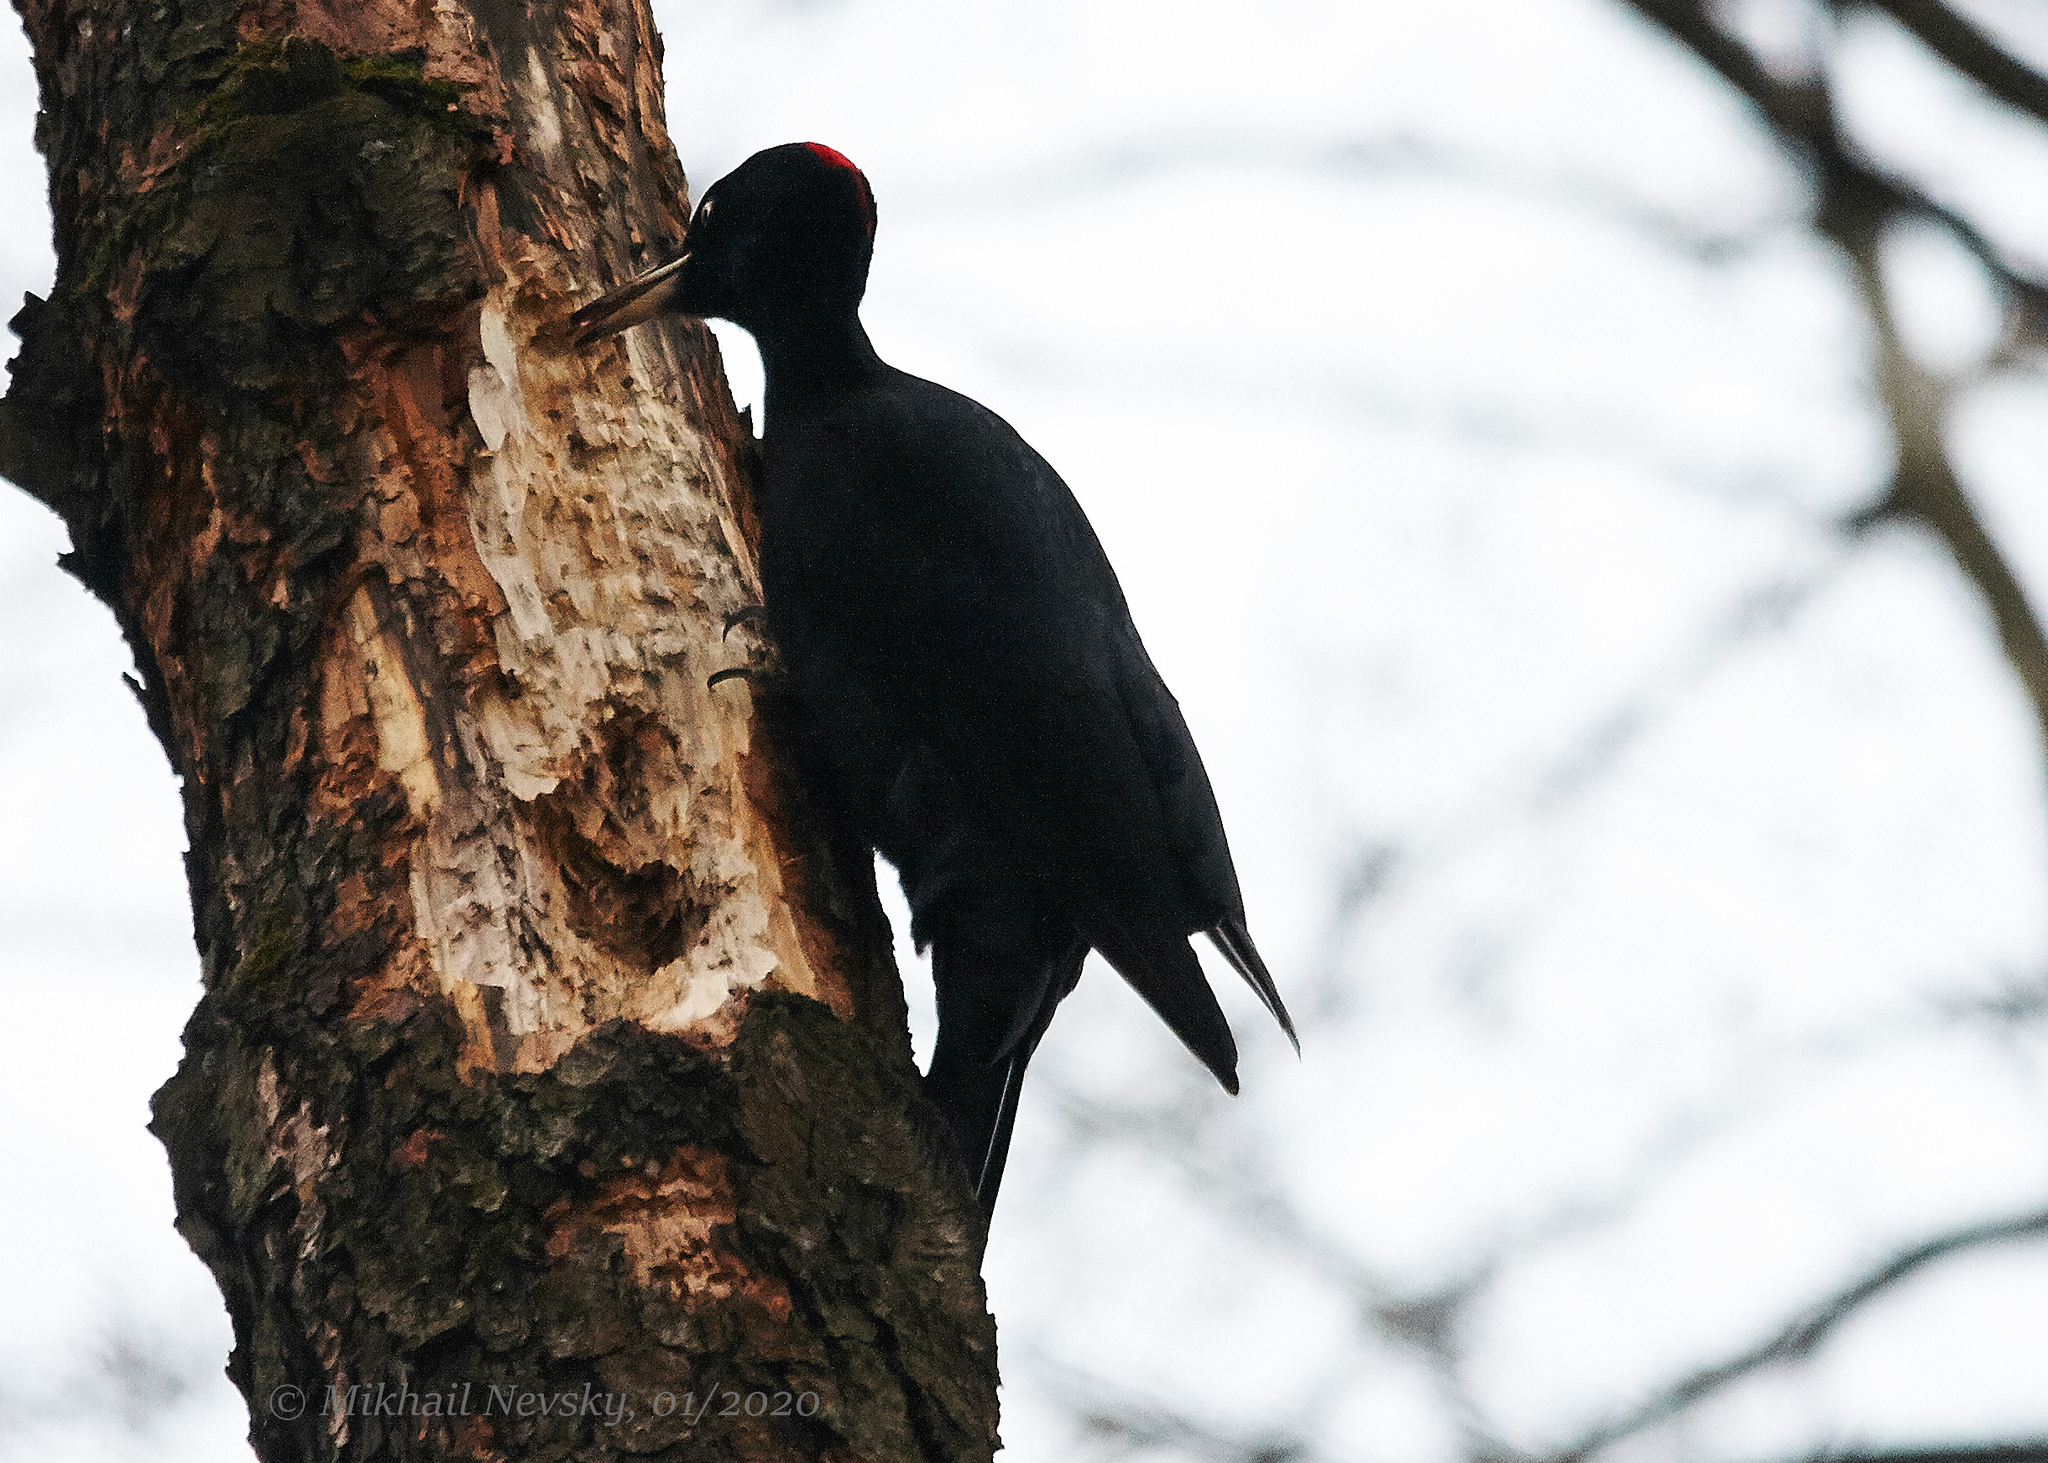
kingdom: Animalia
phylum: Chordata
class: Aves
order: Piciformes
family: Picidae
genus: Dryocopus
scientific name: Dryocopus martius
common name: Black woodpecker
